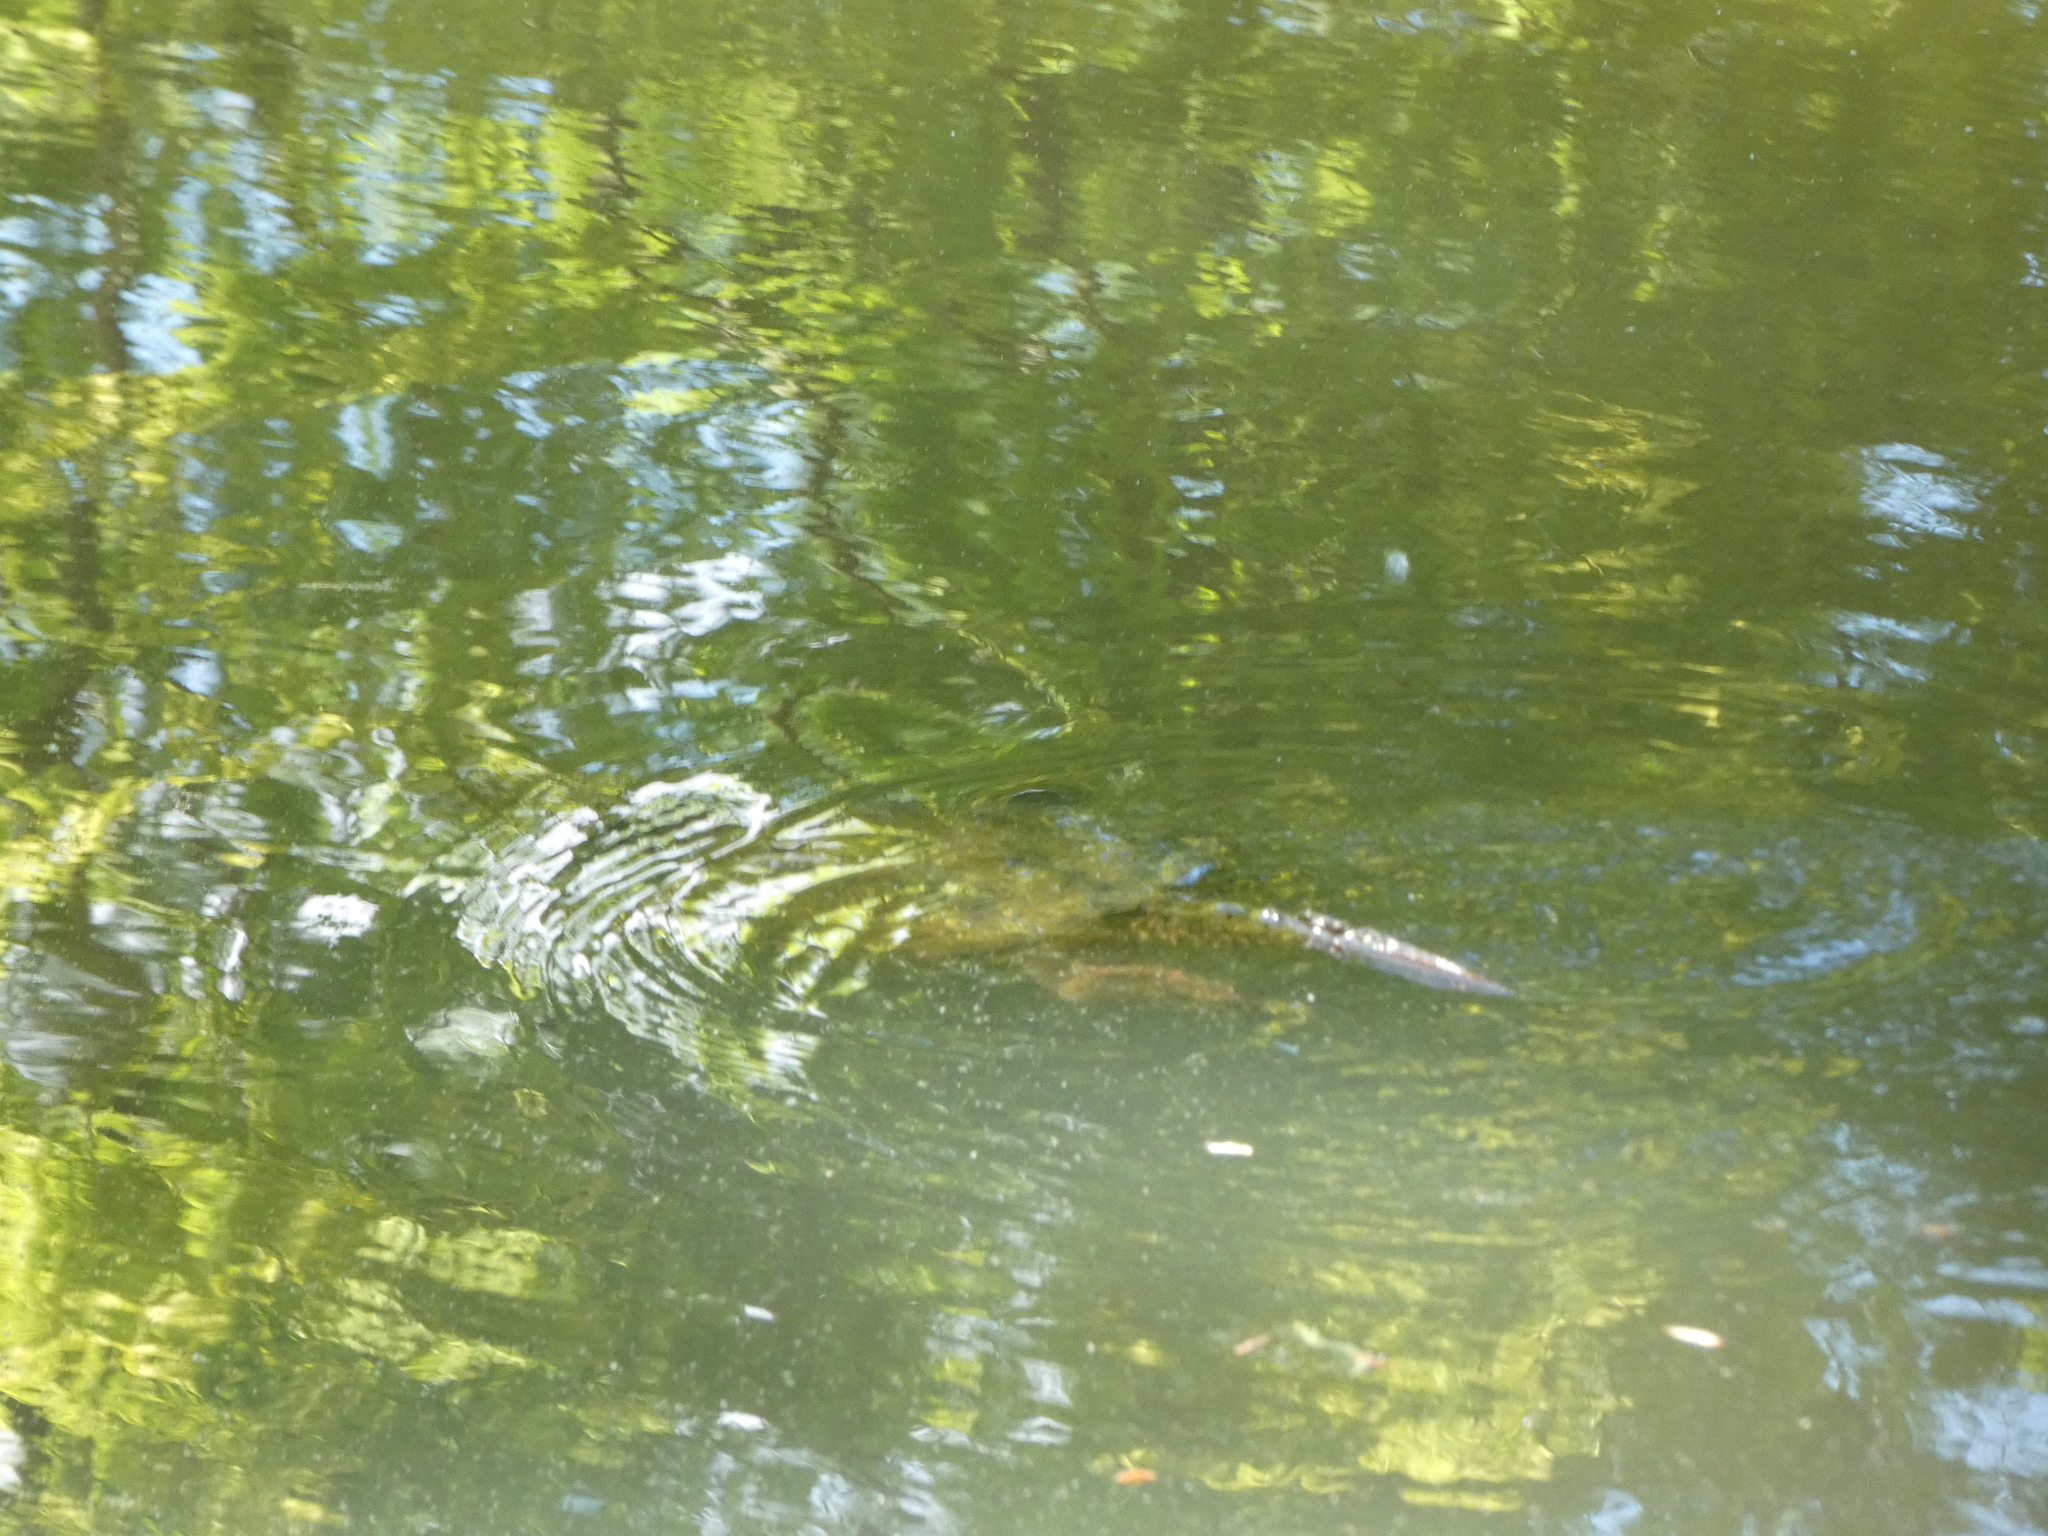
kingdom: Animalia
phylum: Chordata
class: Testudines
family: Chelydridae
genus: Chelydra
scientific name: Chelydra serpentina
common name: Common snapping turtle
